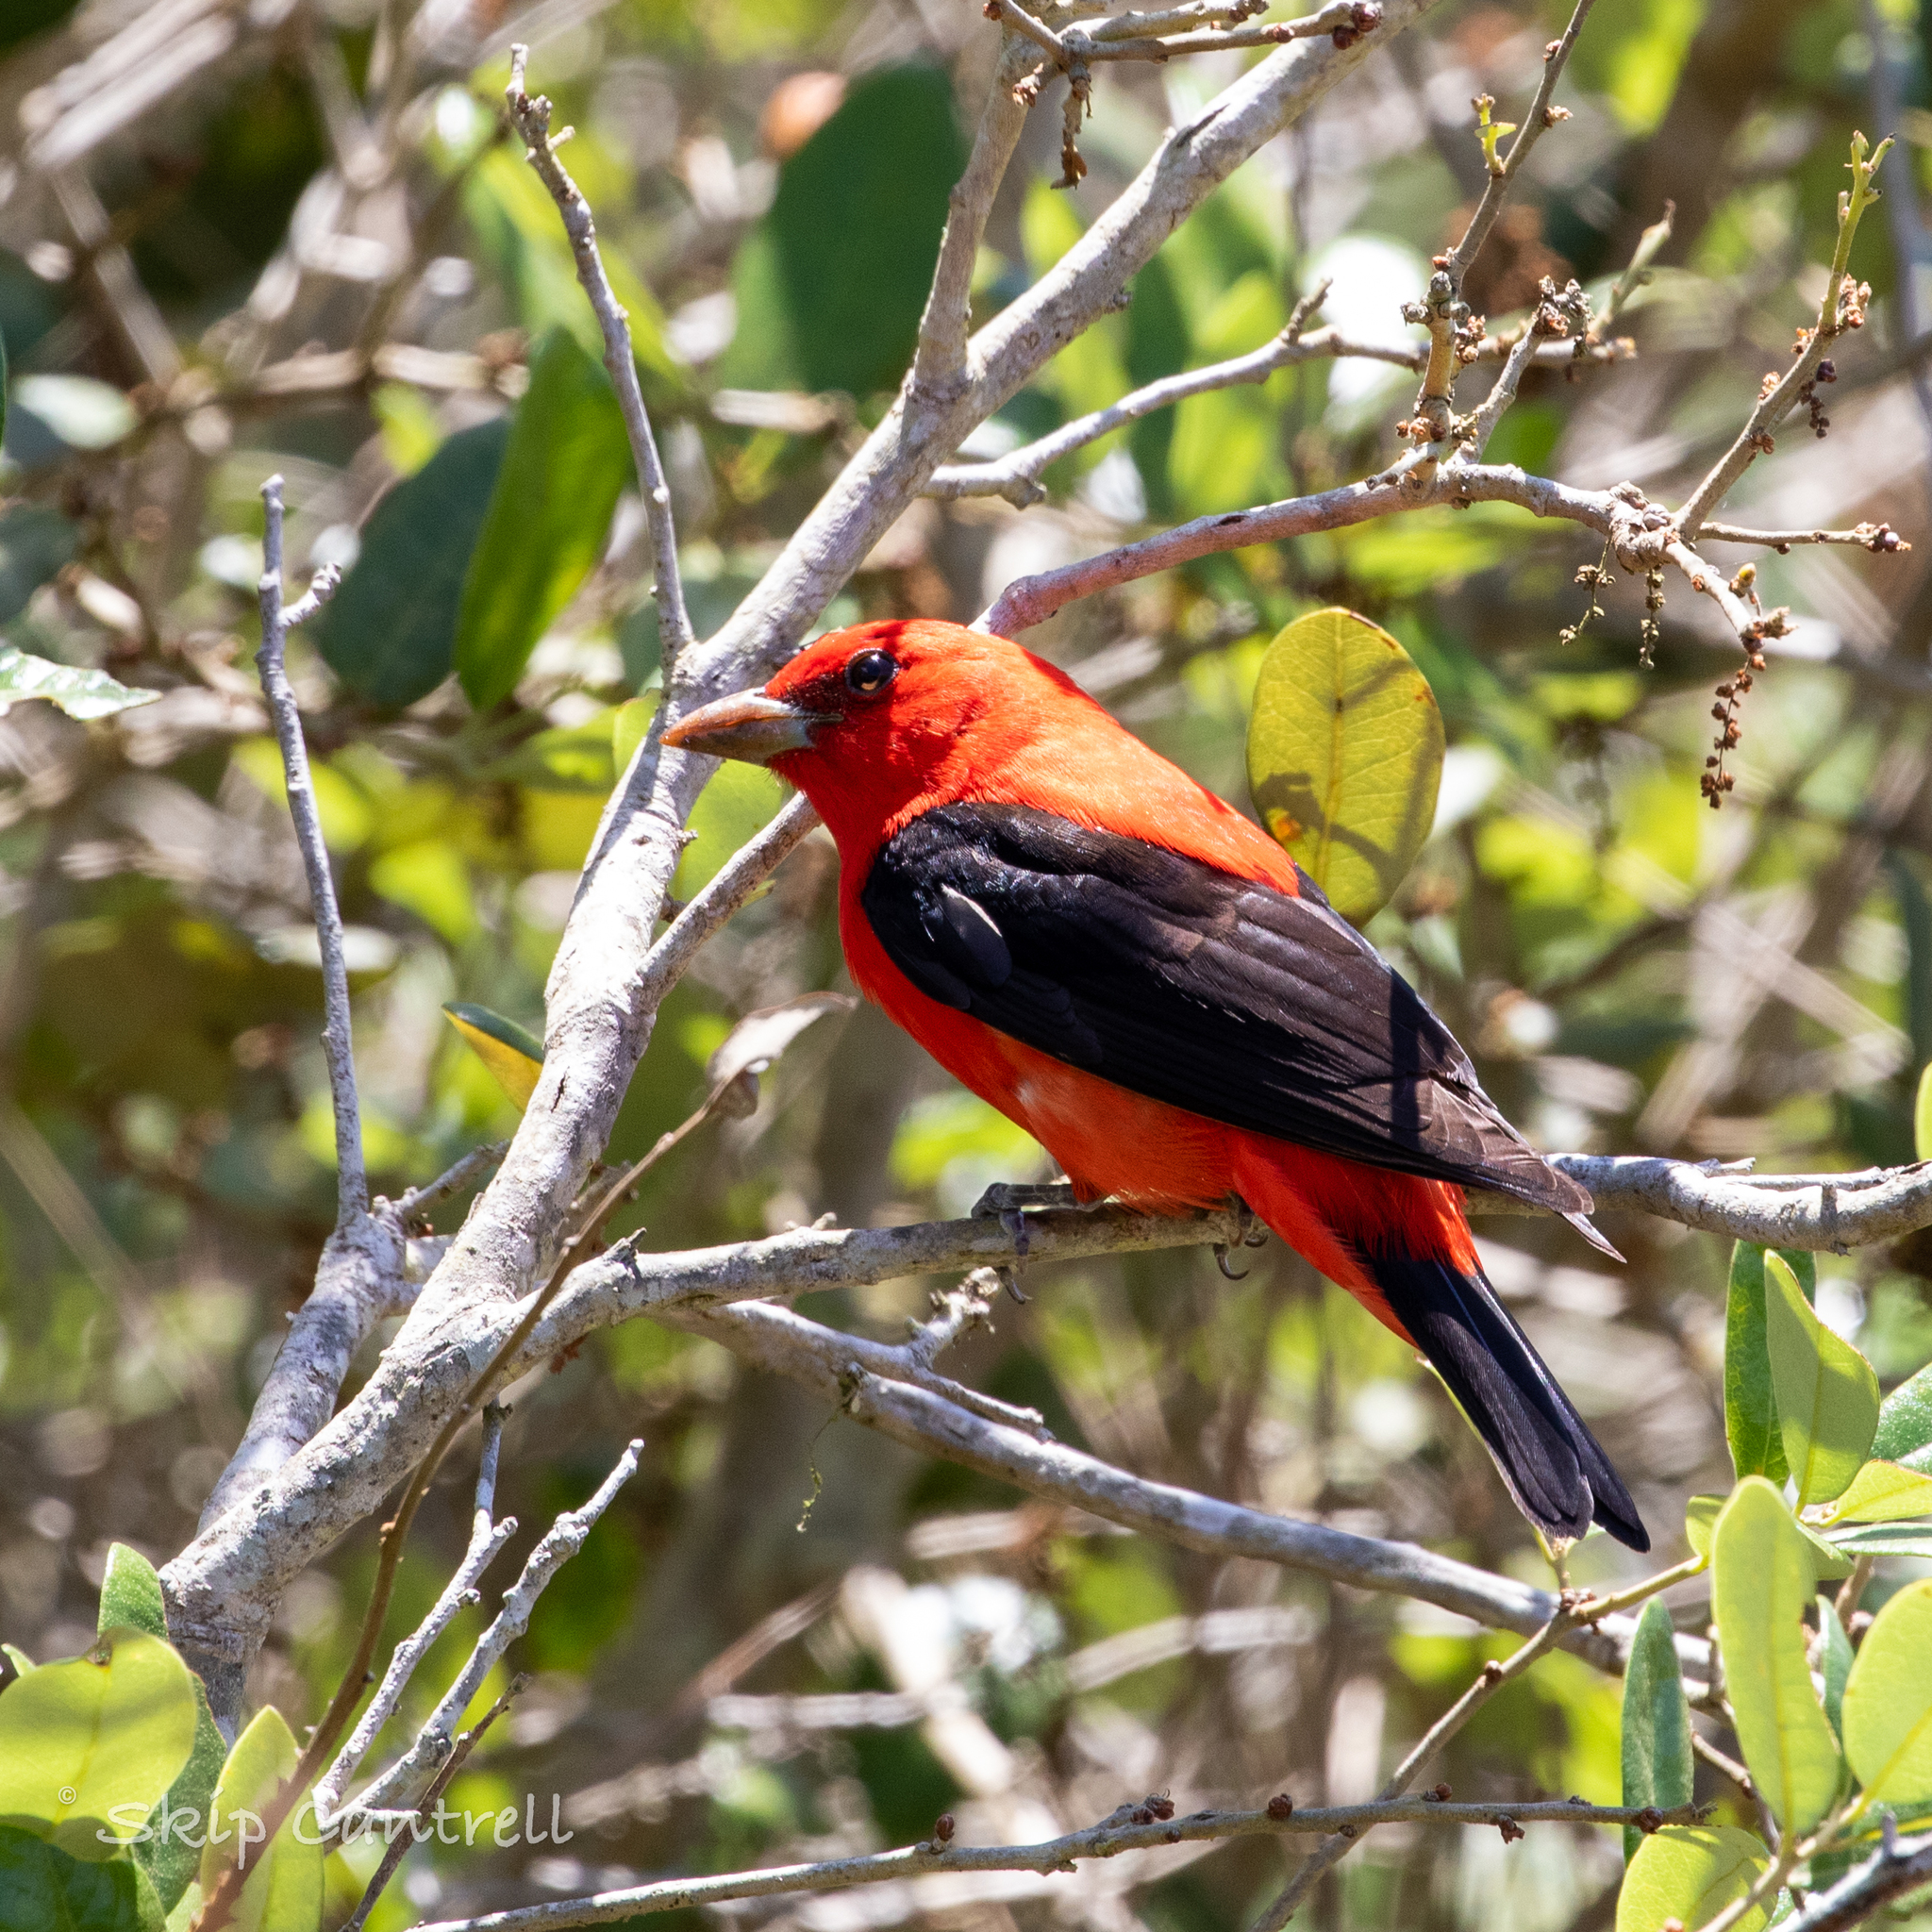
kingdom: Animalia
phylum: Chordata
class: Aves
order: Passeriformes
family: Cardinalidae
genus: Piranga
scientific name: Piranga olivacea
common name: Scarlet tanager
